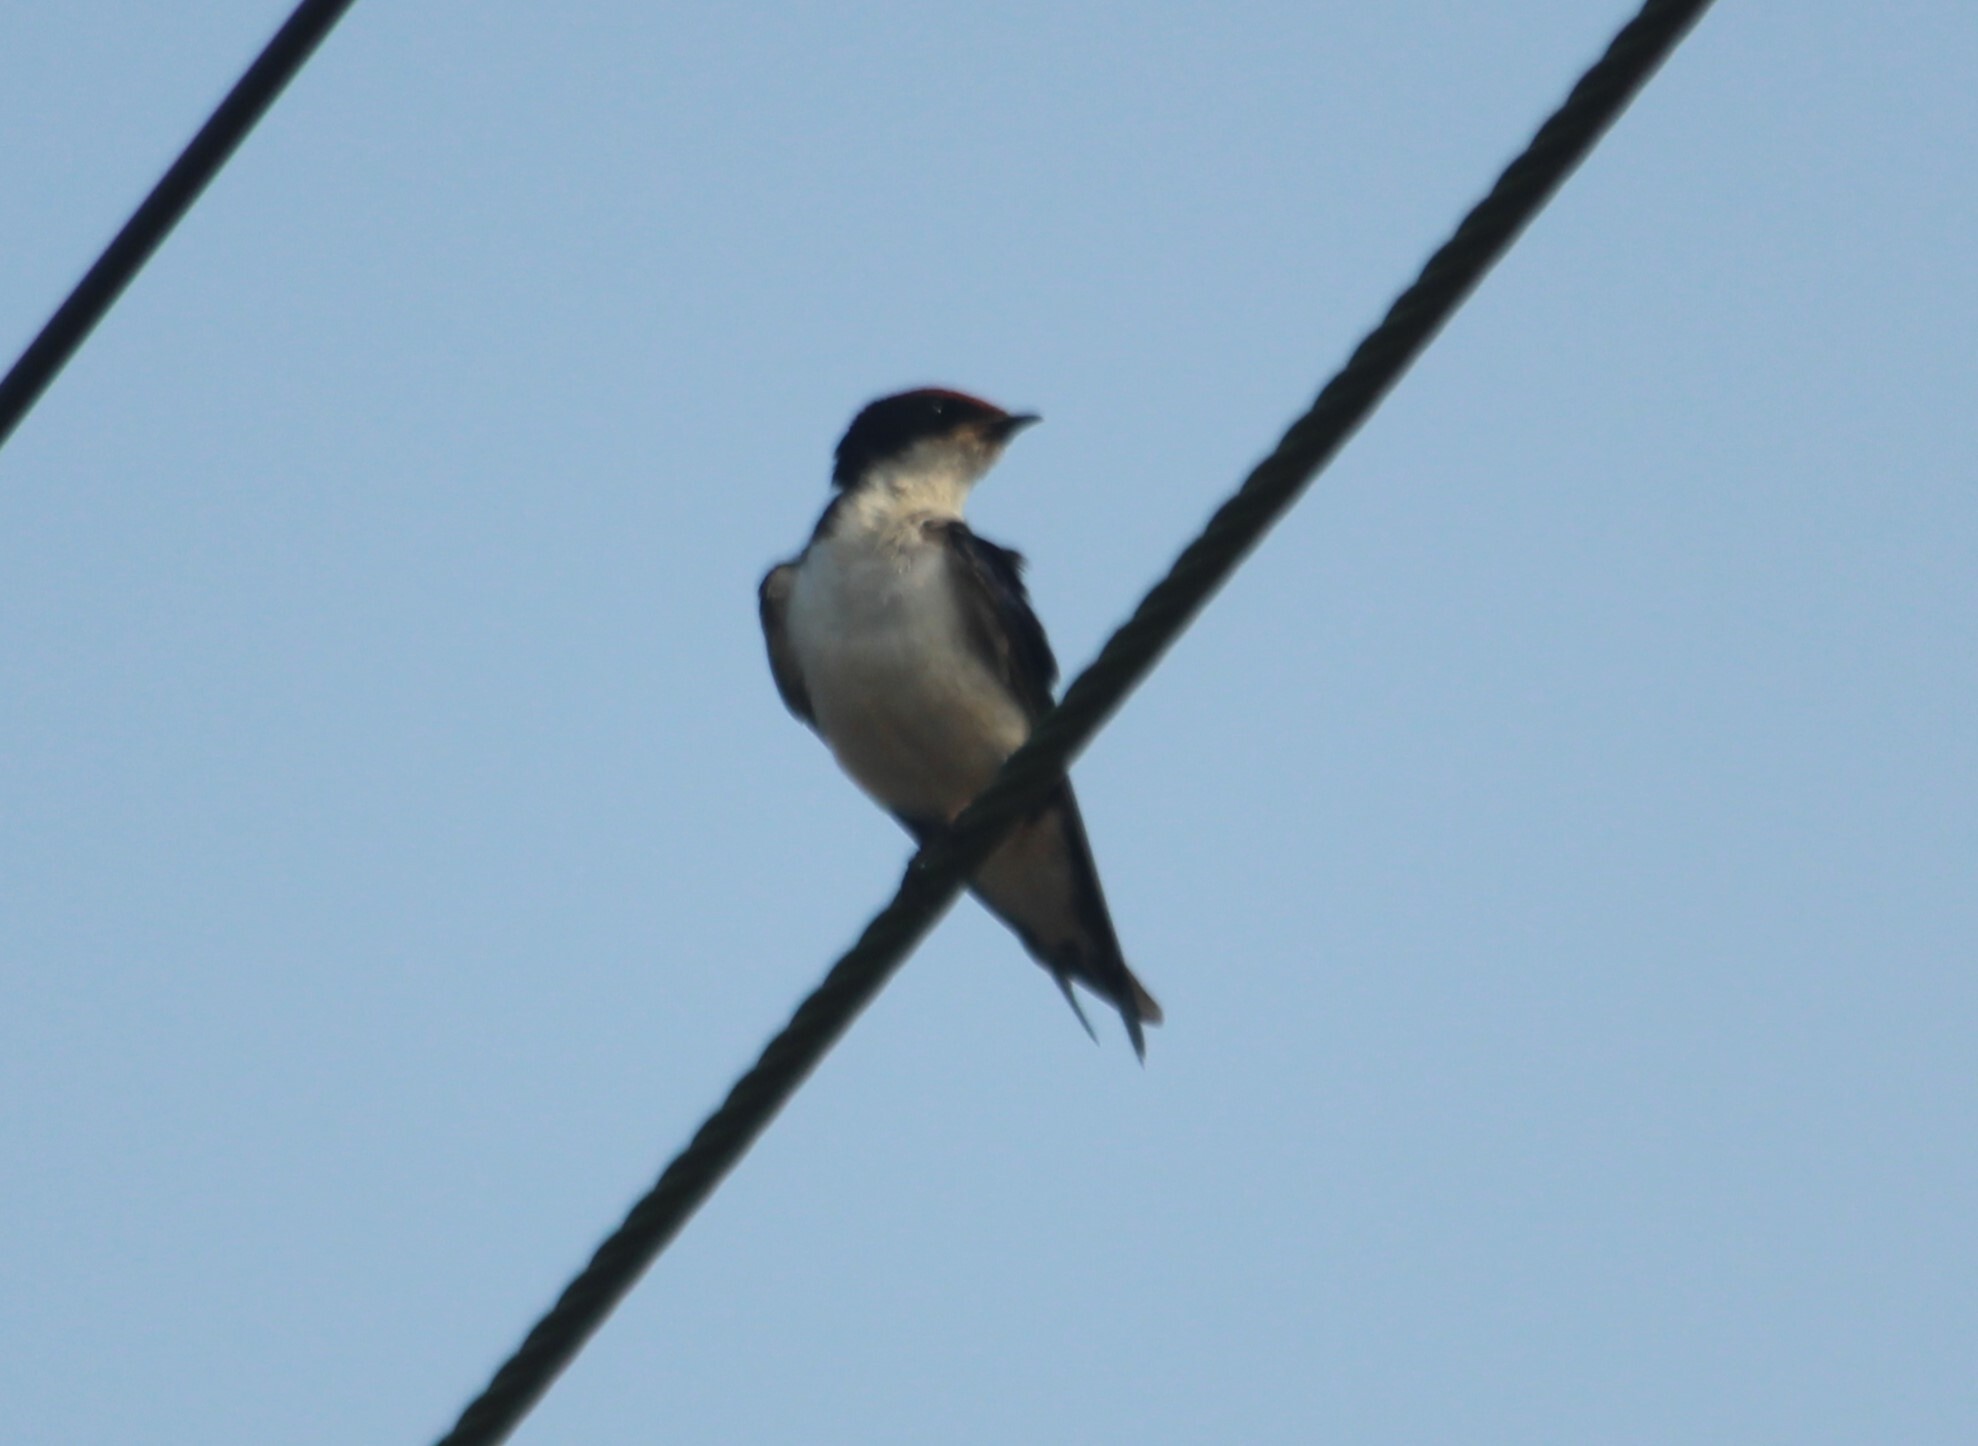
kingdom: Animalia
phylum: Chordata
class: Aves
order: Passeriformes
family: Hirundinidae
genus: Hirundo
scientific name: Hirundo smithii
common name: Wire-tailed swallow
